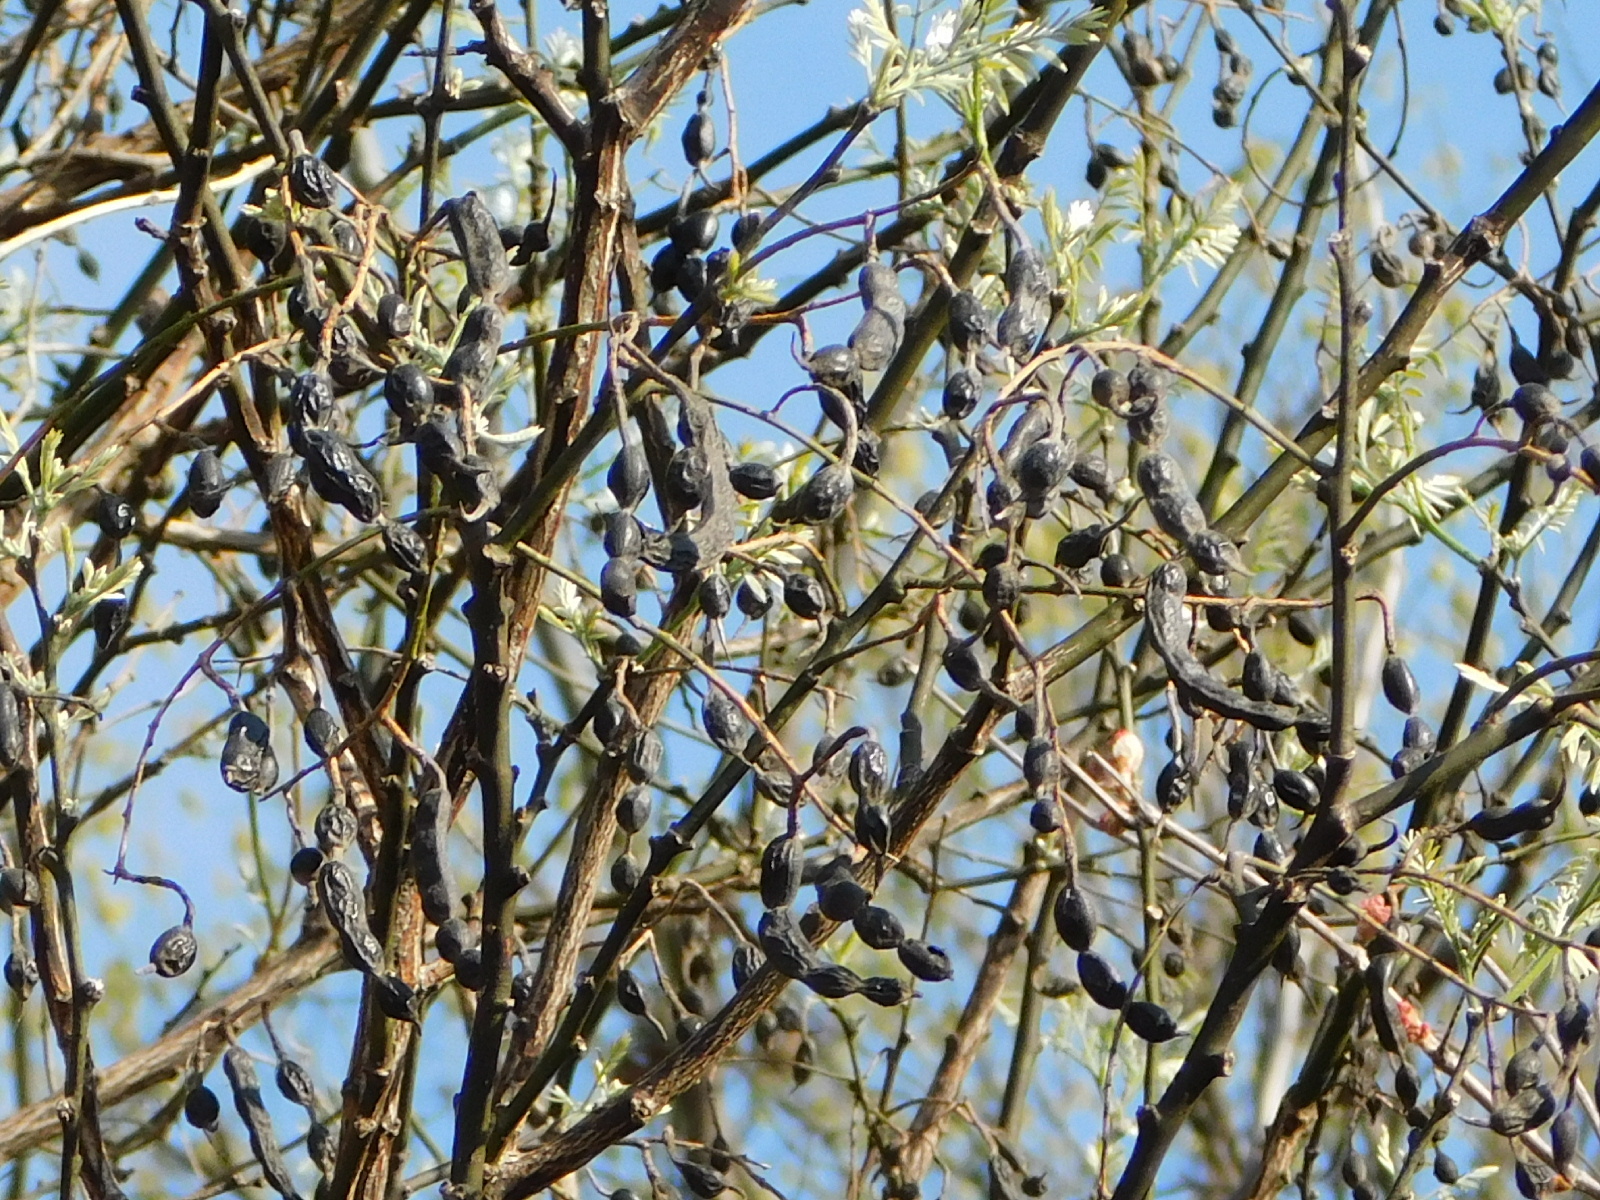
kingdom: Plantae
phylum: Tracheophyta
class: Magnoliopsida
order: Fabales
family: Fabaceae
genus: Styphnolobium
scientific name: Styphnolobium affine
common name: Texas sophora
